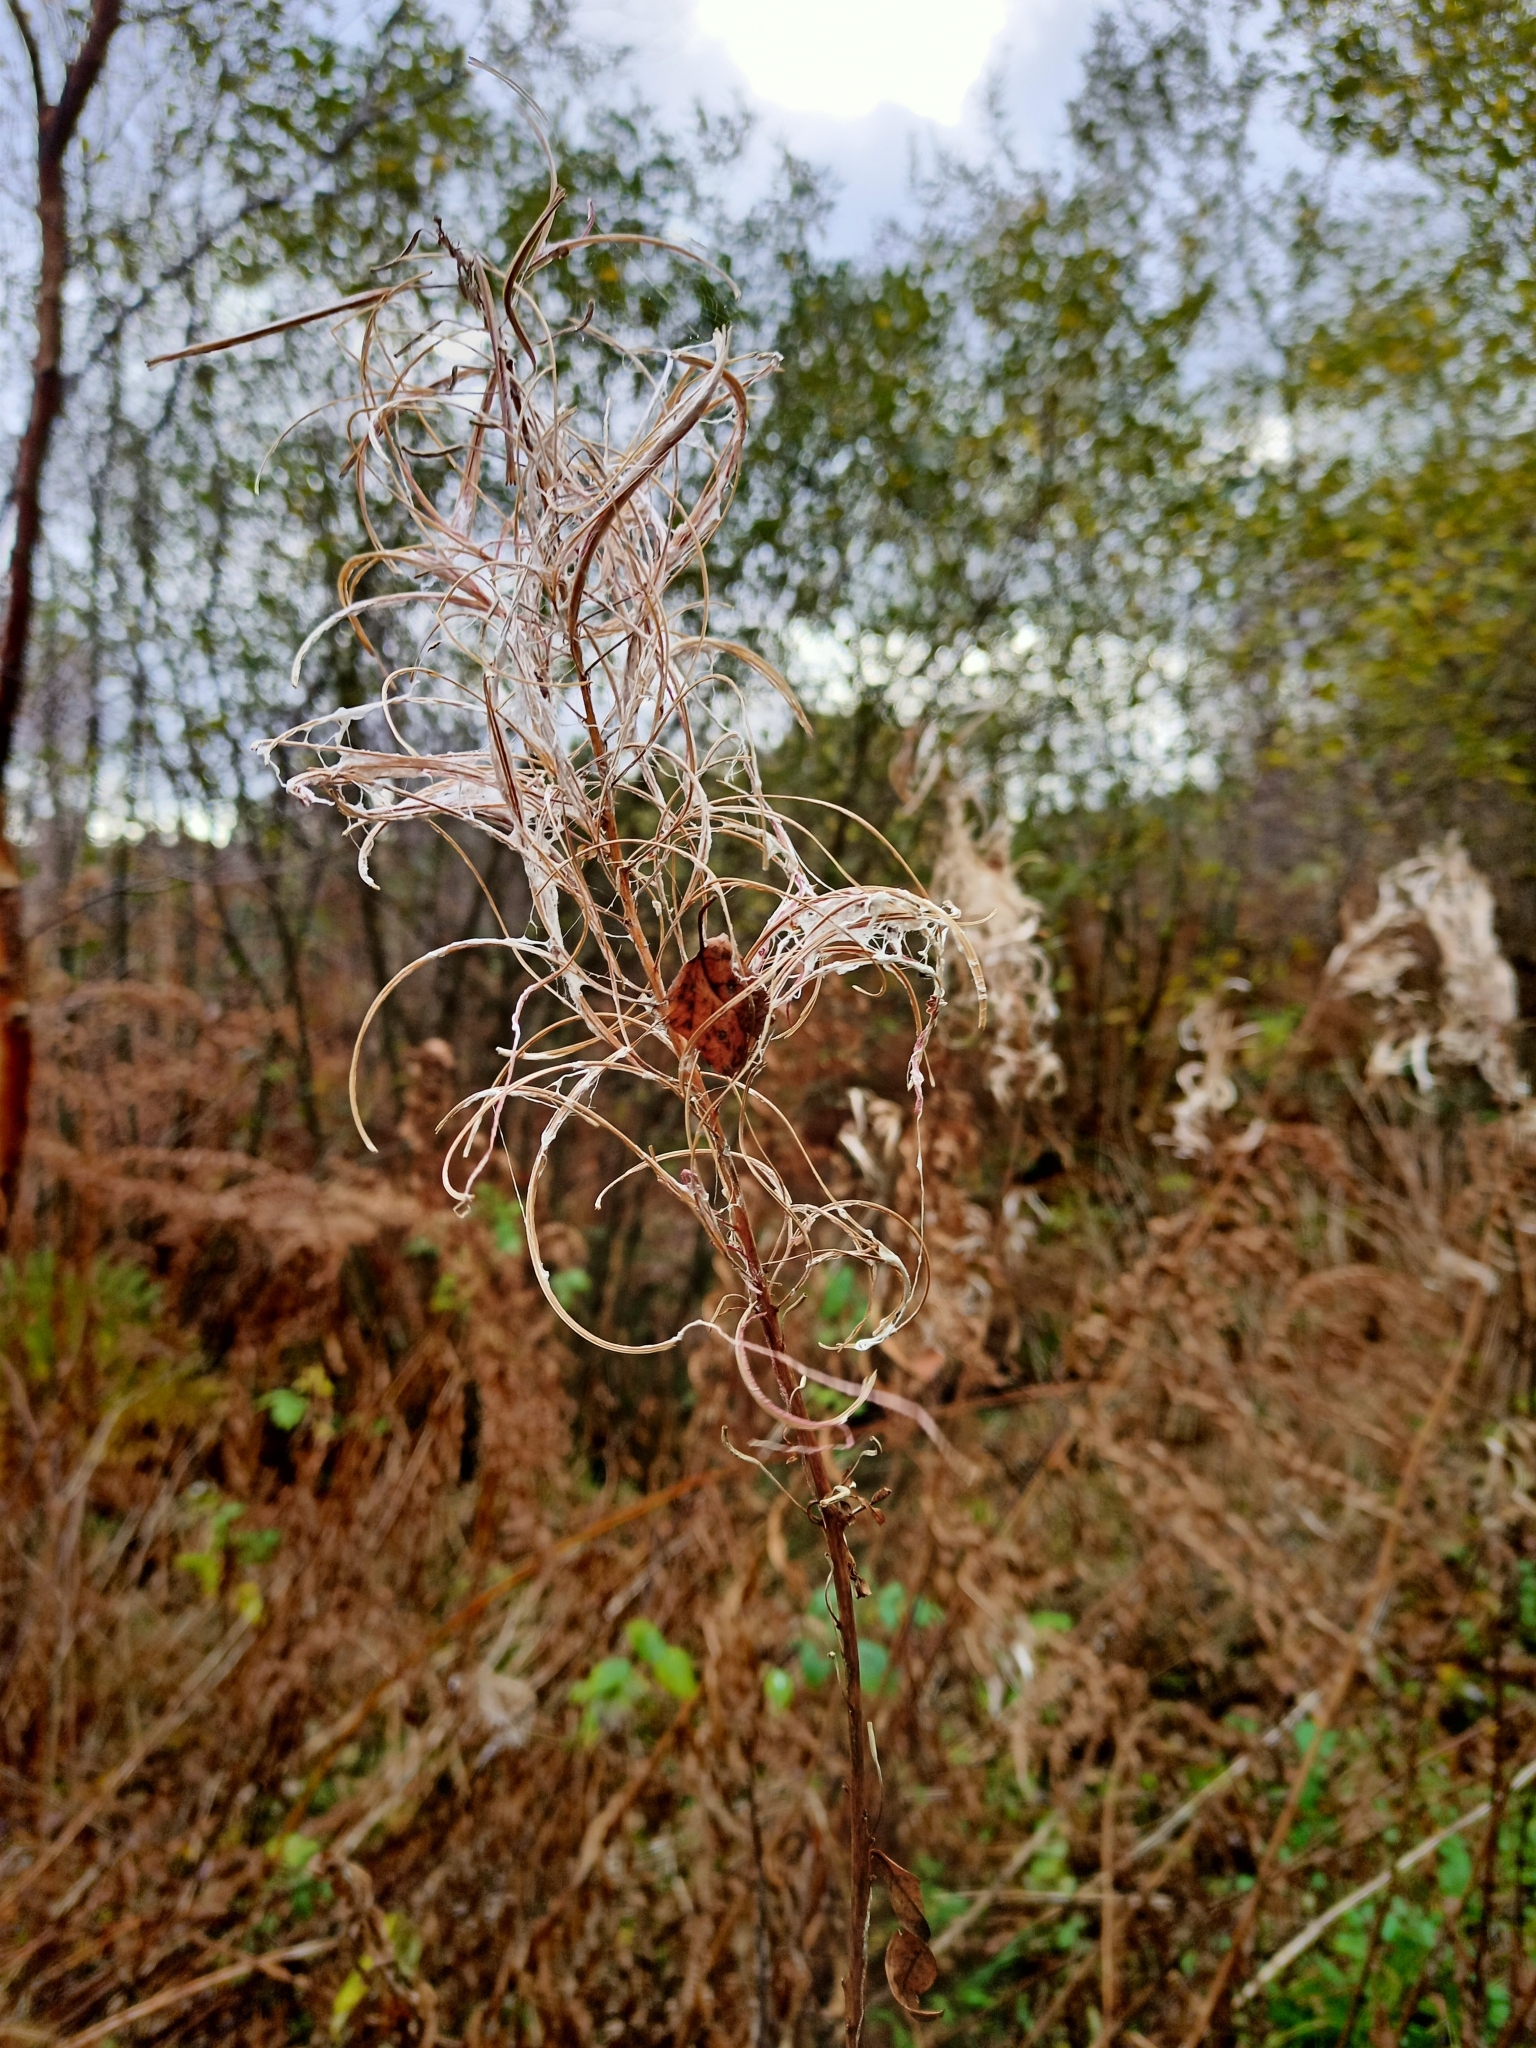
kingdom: Plantae
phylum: Tracheophyta
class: Magnoliopsida
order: Myrtales
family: Onagraceae
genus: Chamaenerion
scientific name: Chamaenerion angustifolium
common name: Fireweed
